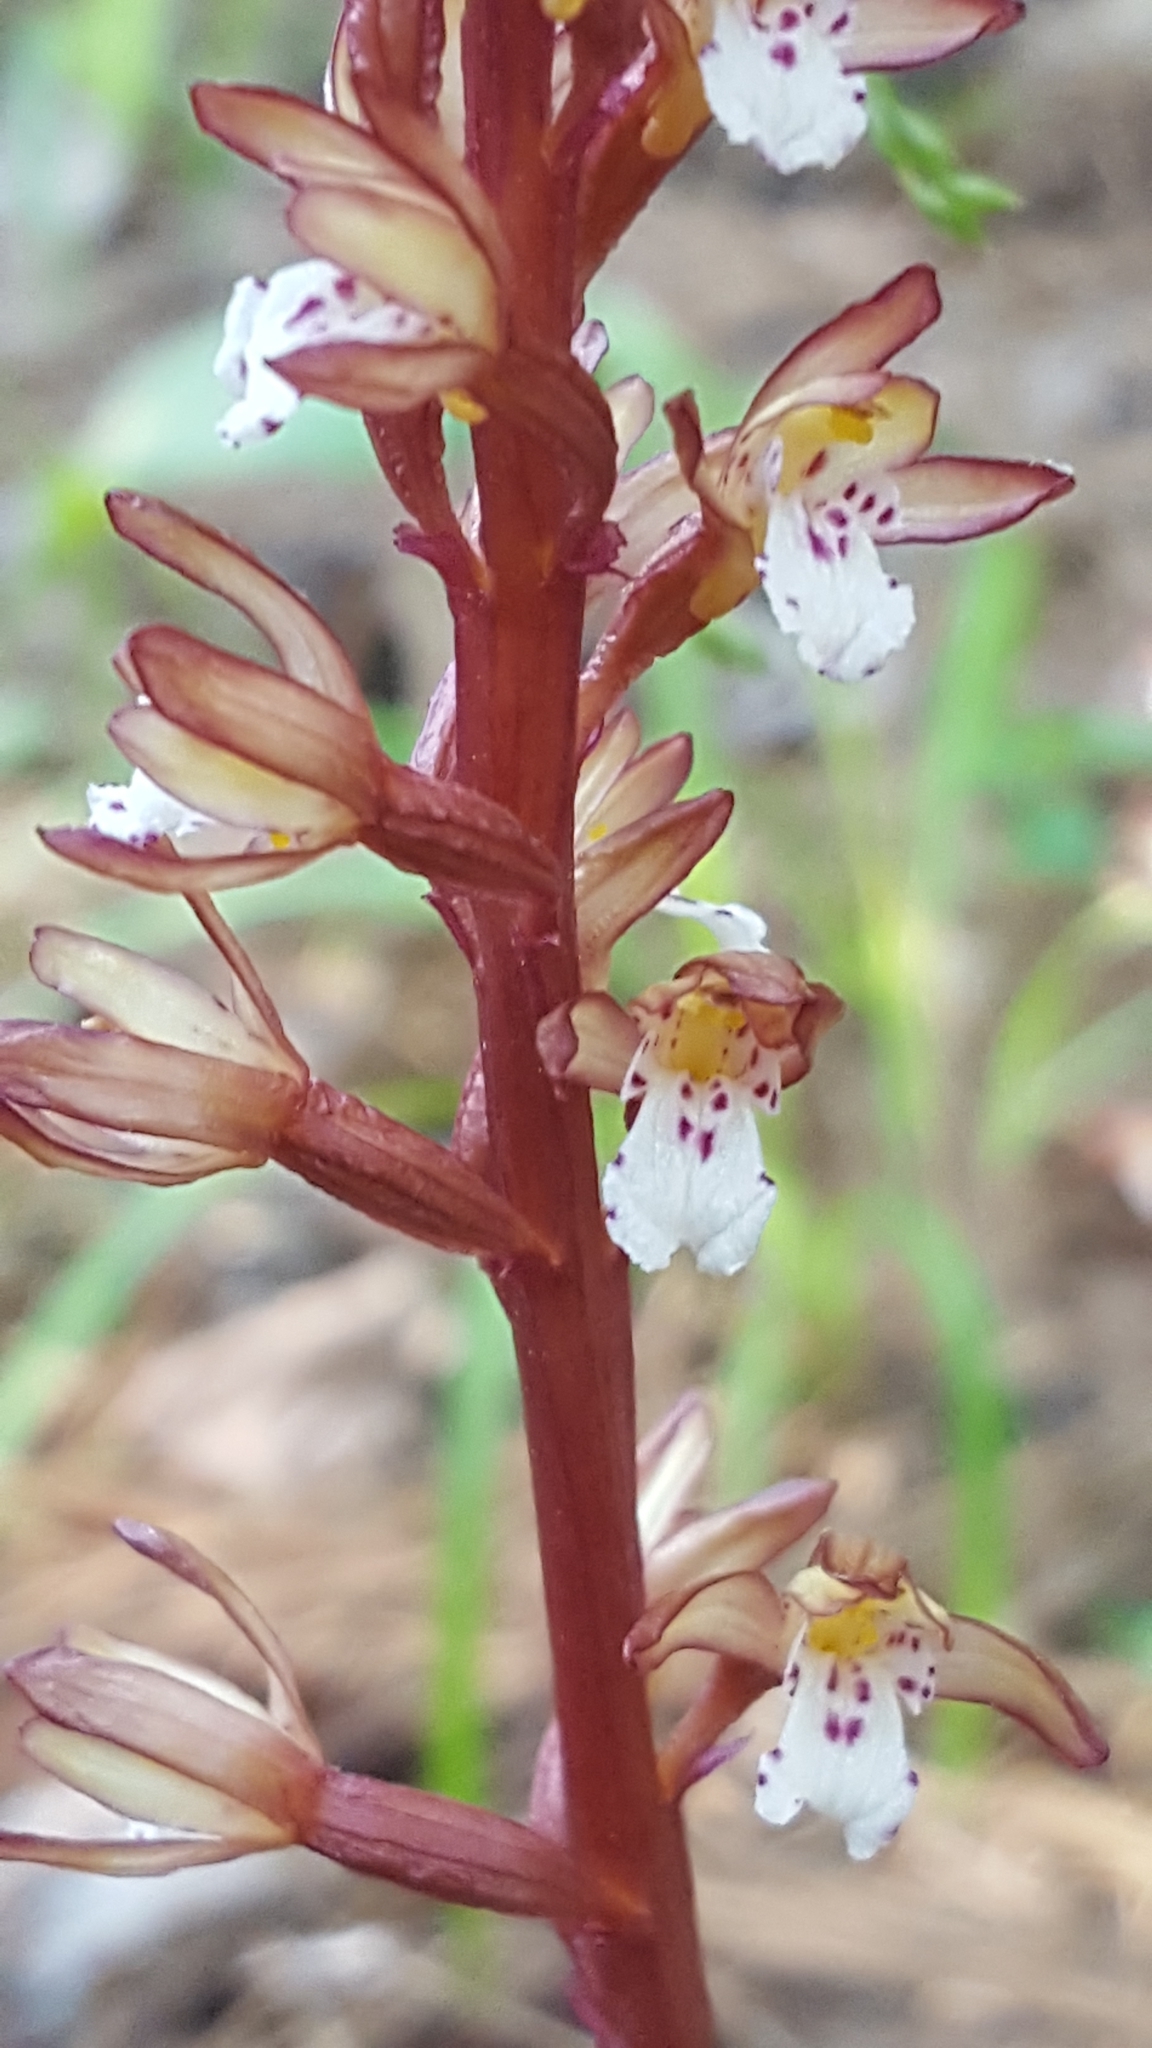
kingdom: Plantae
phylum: Tracheophyta
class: Liliopsida
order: Asparagales
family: Orchidaceae
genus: Corallorhiza
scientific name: Corallorhiza maculata
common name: Spotted coralroot
